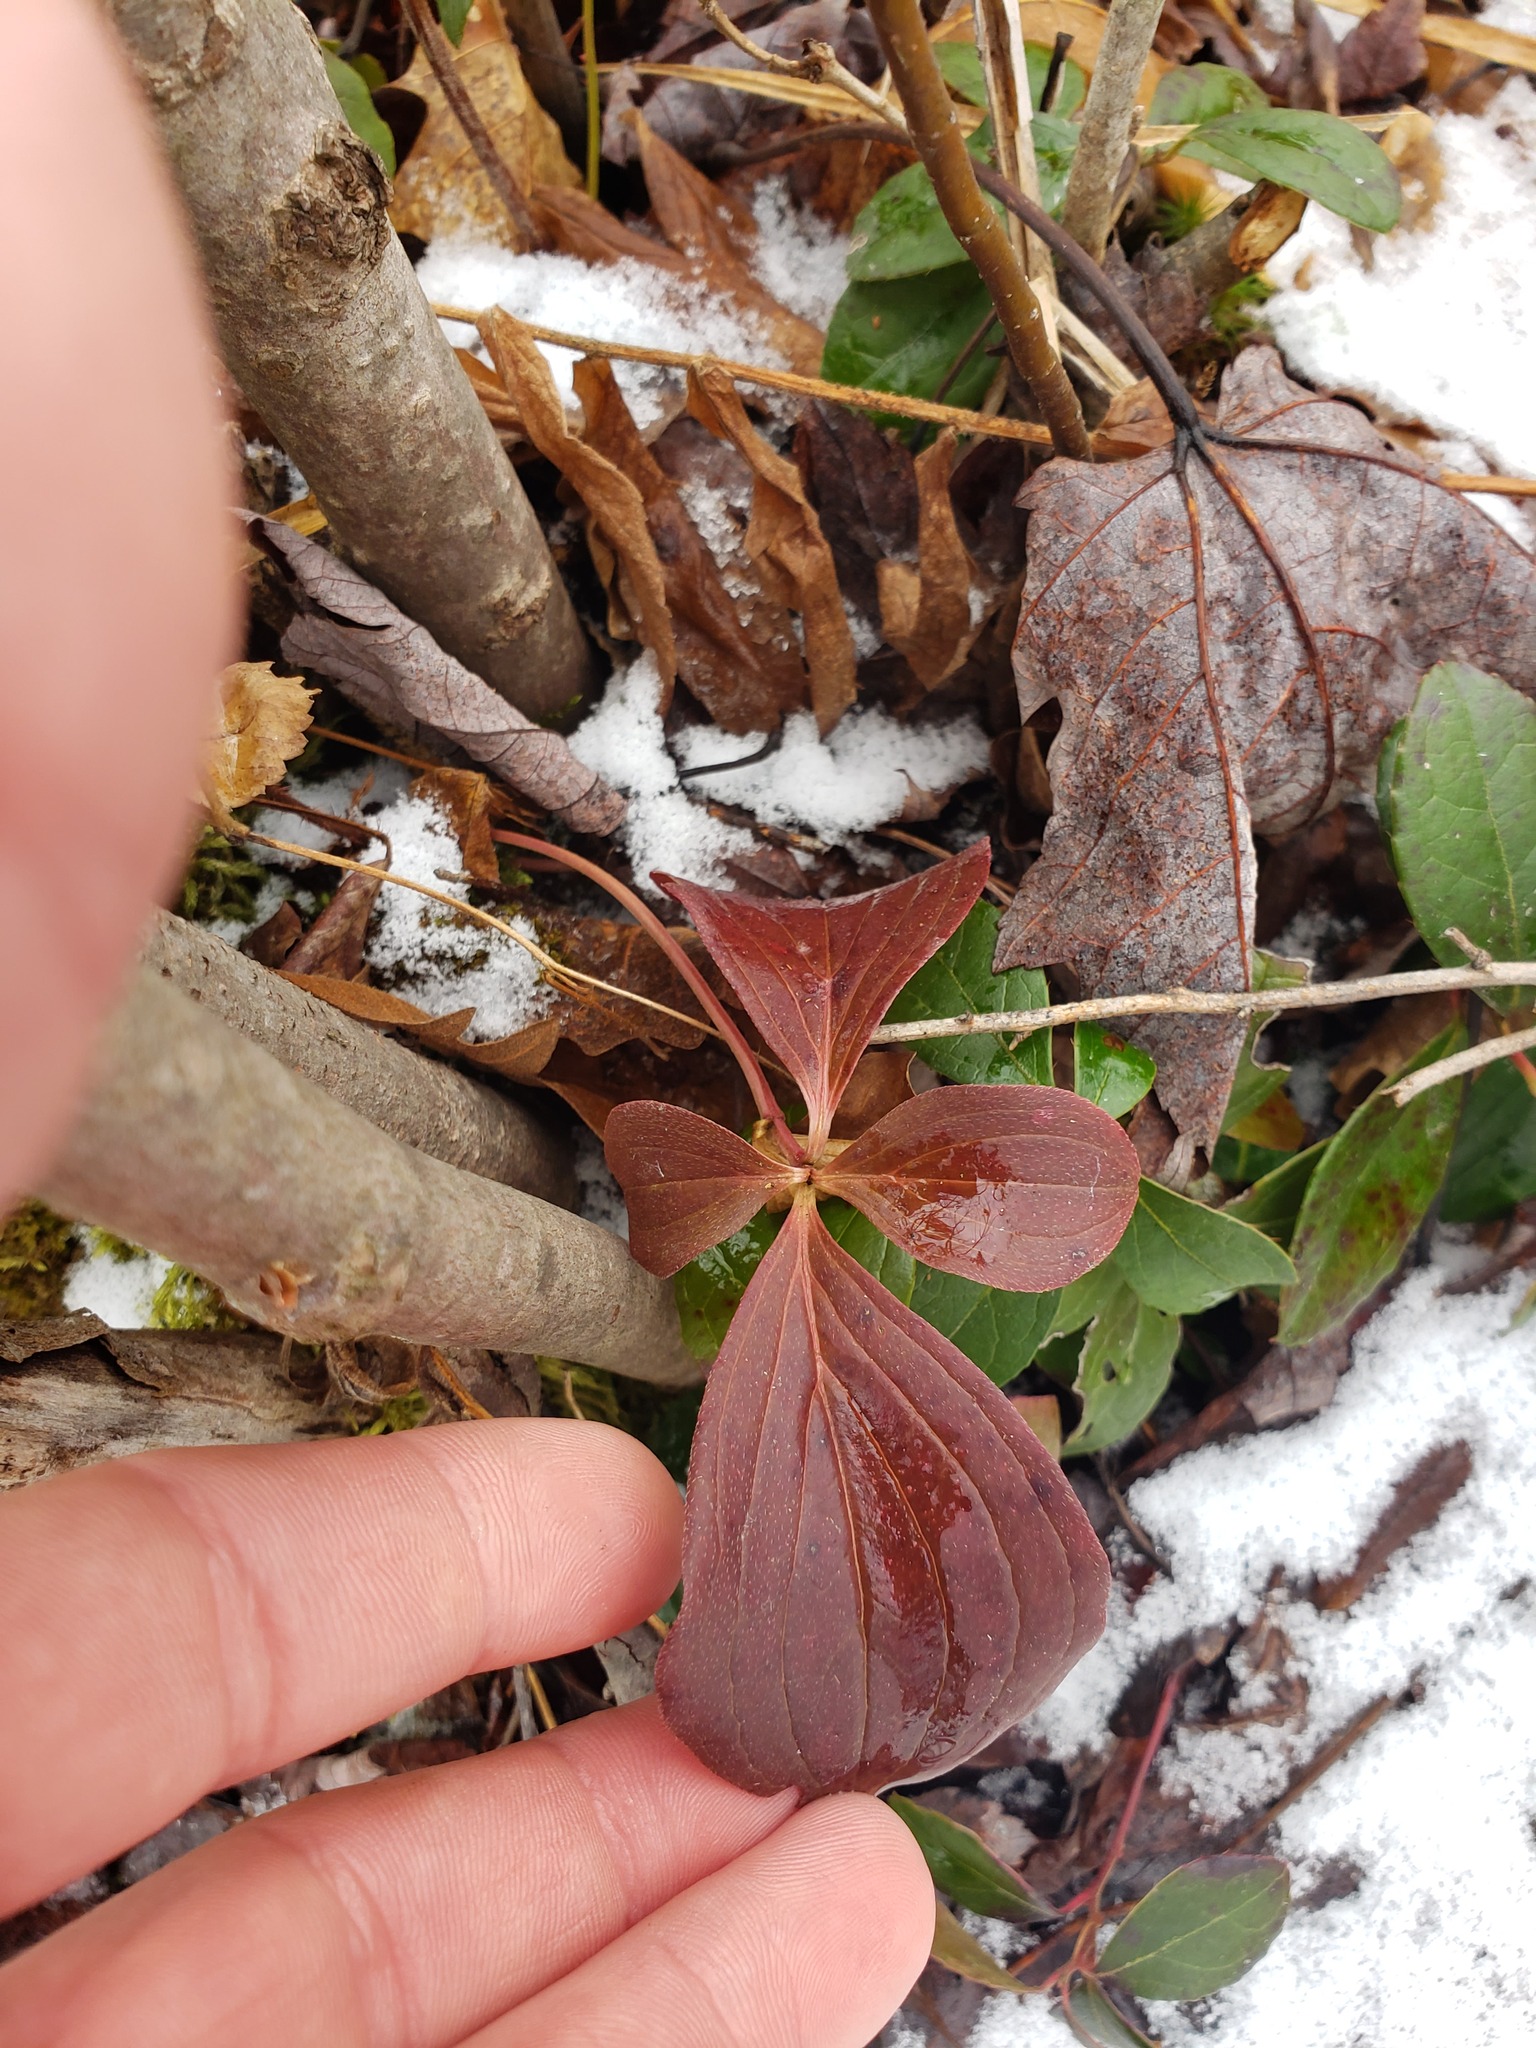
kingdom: Plantae
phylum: Tracheophyta
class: Magnoliopsida
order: Cornales
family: Cornaceae
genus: Cornus
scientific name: Cornus canadensis
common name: Creeping dogwood
